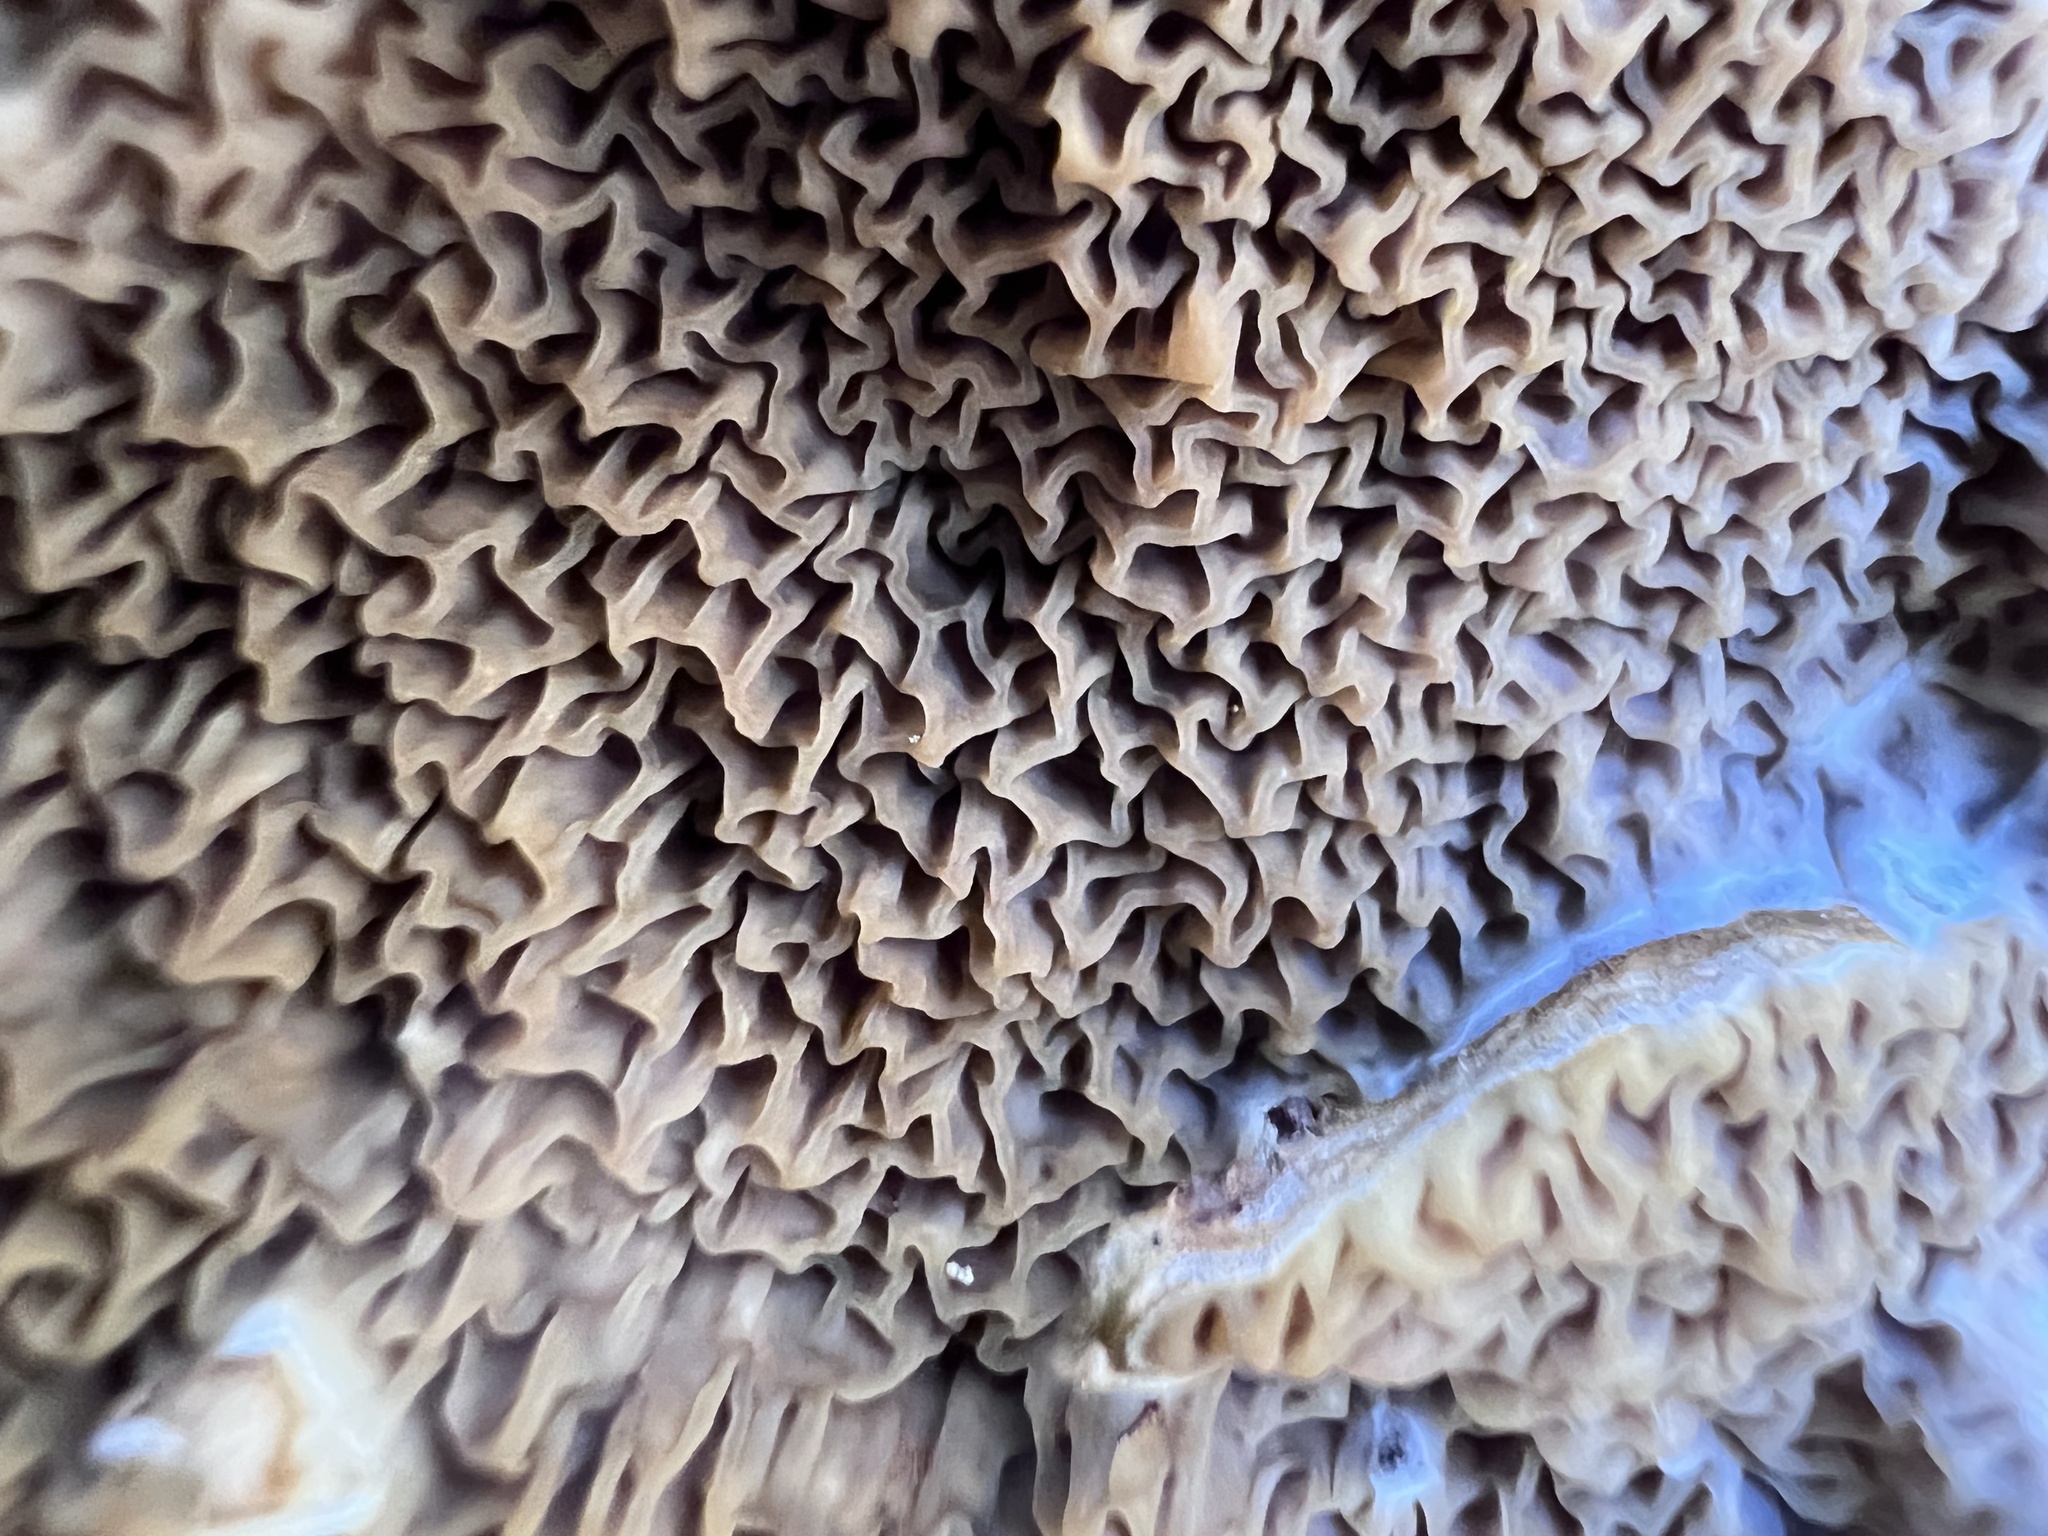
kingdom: Fungi
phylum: Basidiomycota
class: Agaricomycetes
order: Boletales
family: Serpulaceae
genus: Serpula
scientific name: Serpula himantioides
